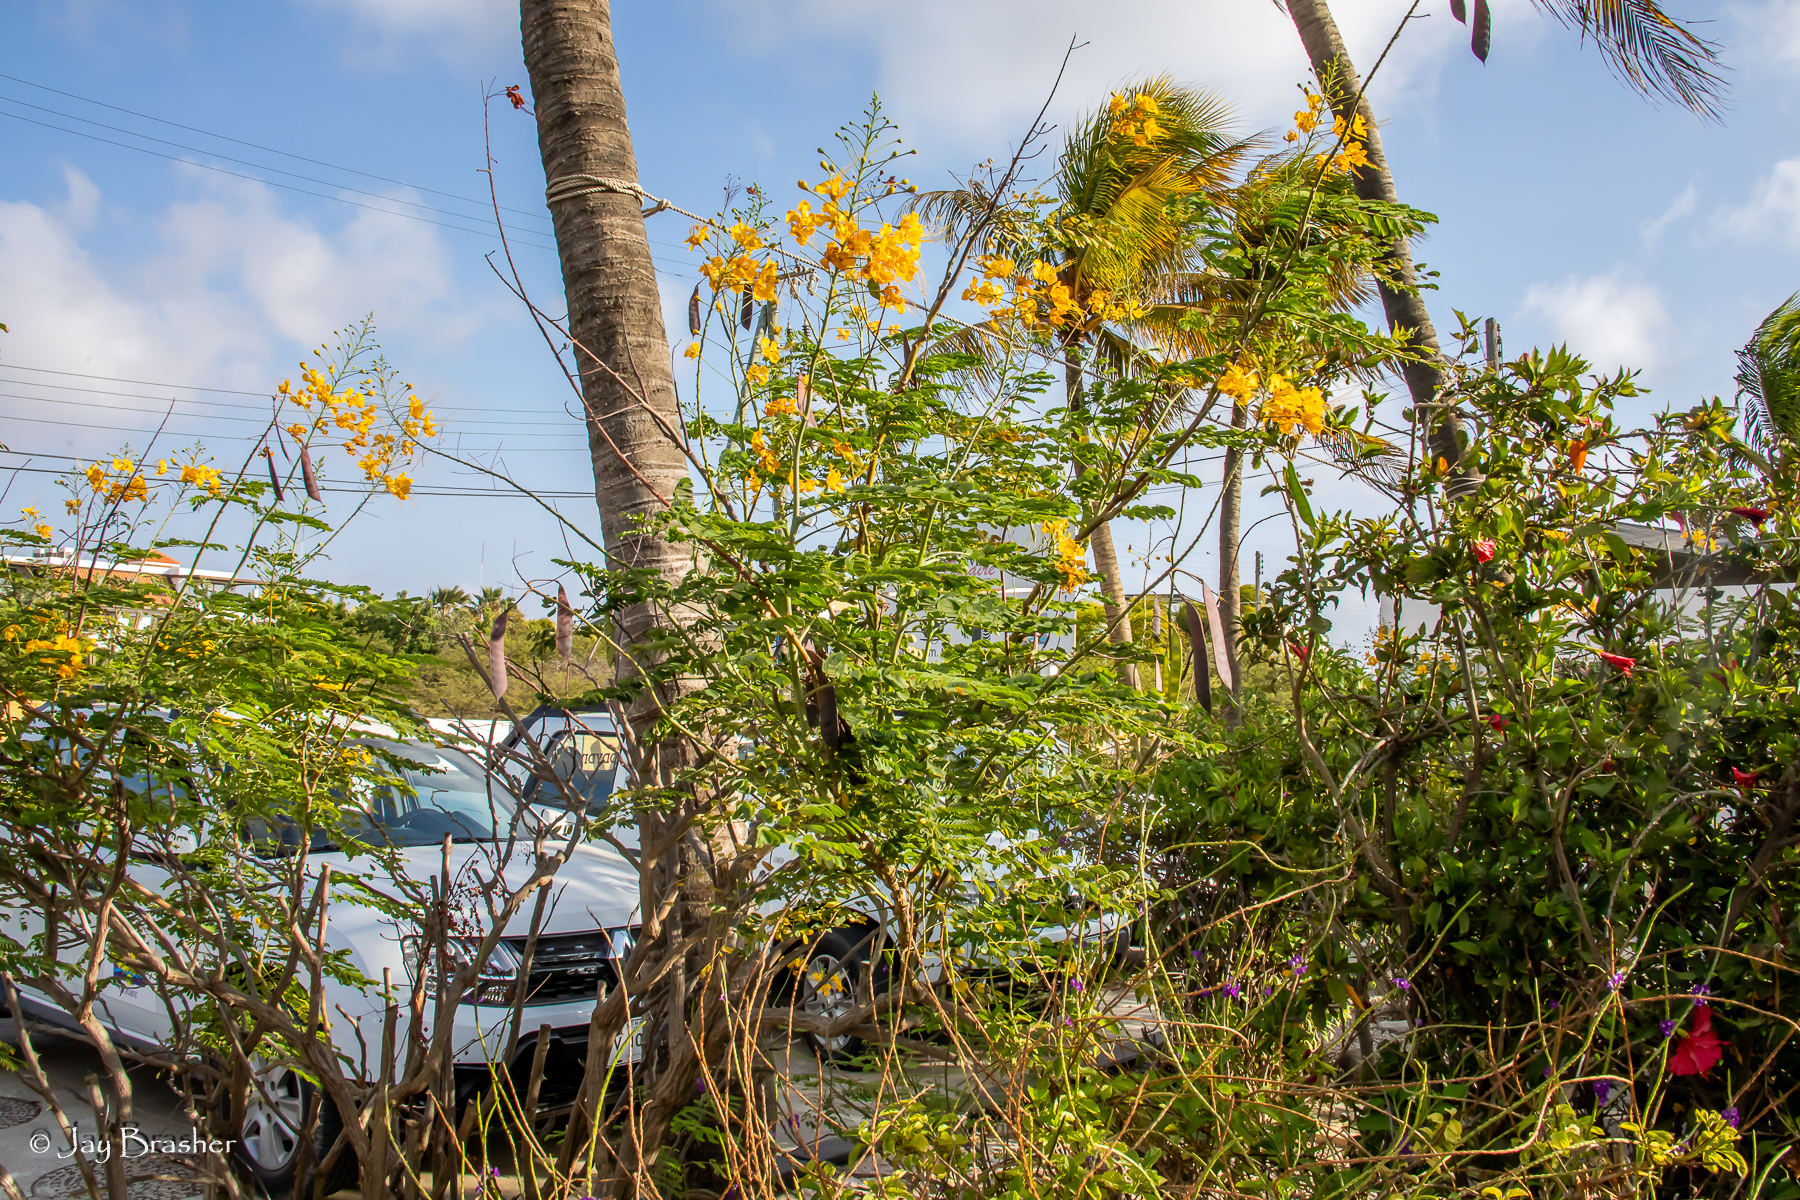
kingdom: Plantae
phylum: Tracheophyta
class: Magnoliopsida
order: Fabales
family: Fabaceae
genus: Caesalpinia
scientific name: Caesalpinia pulcherrima
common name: Pride-of-barbados
